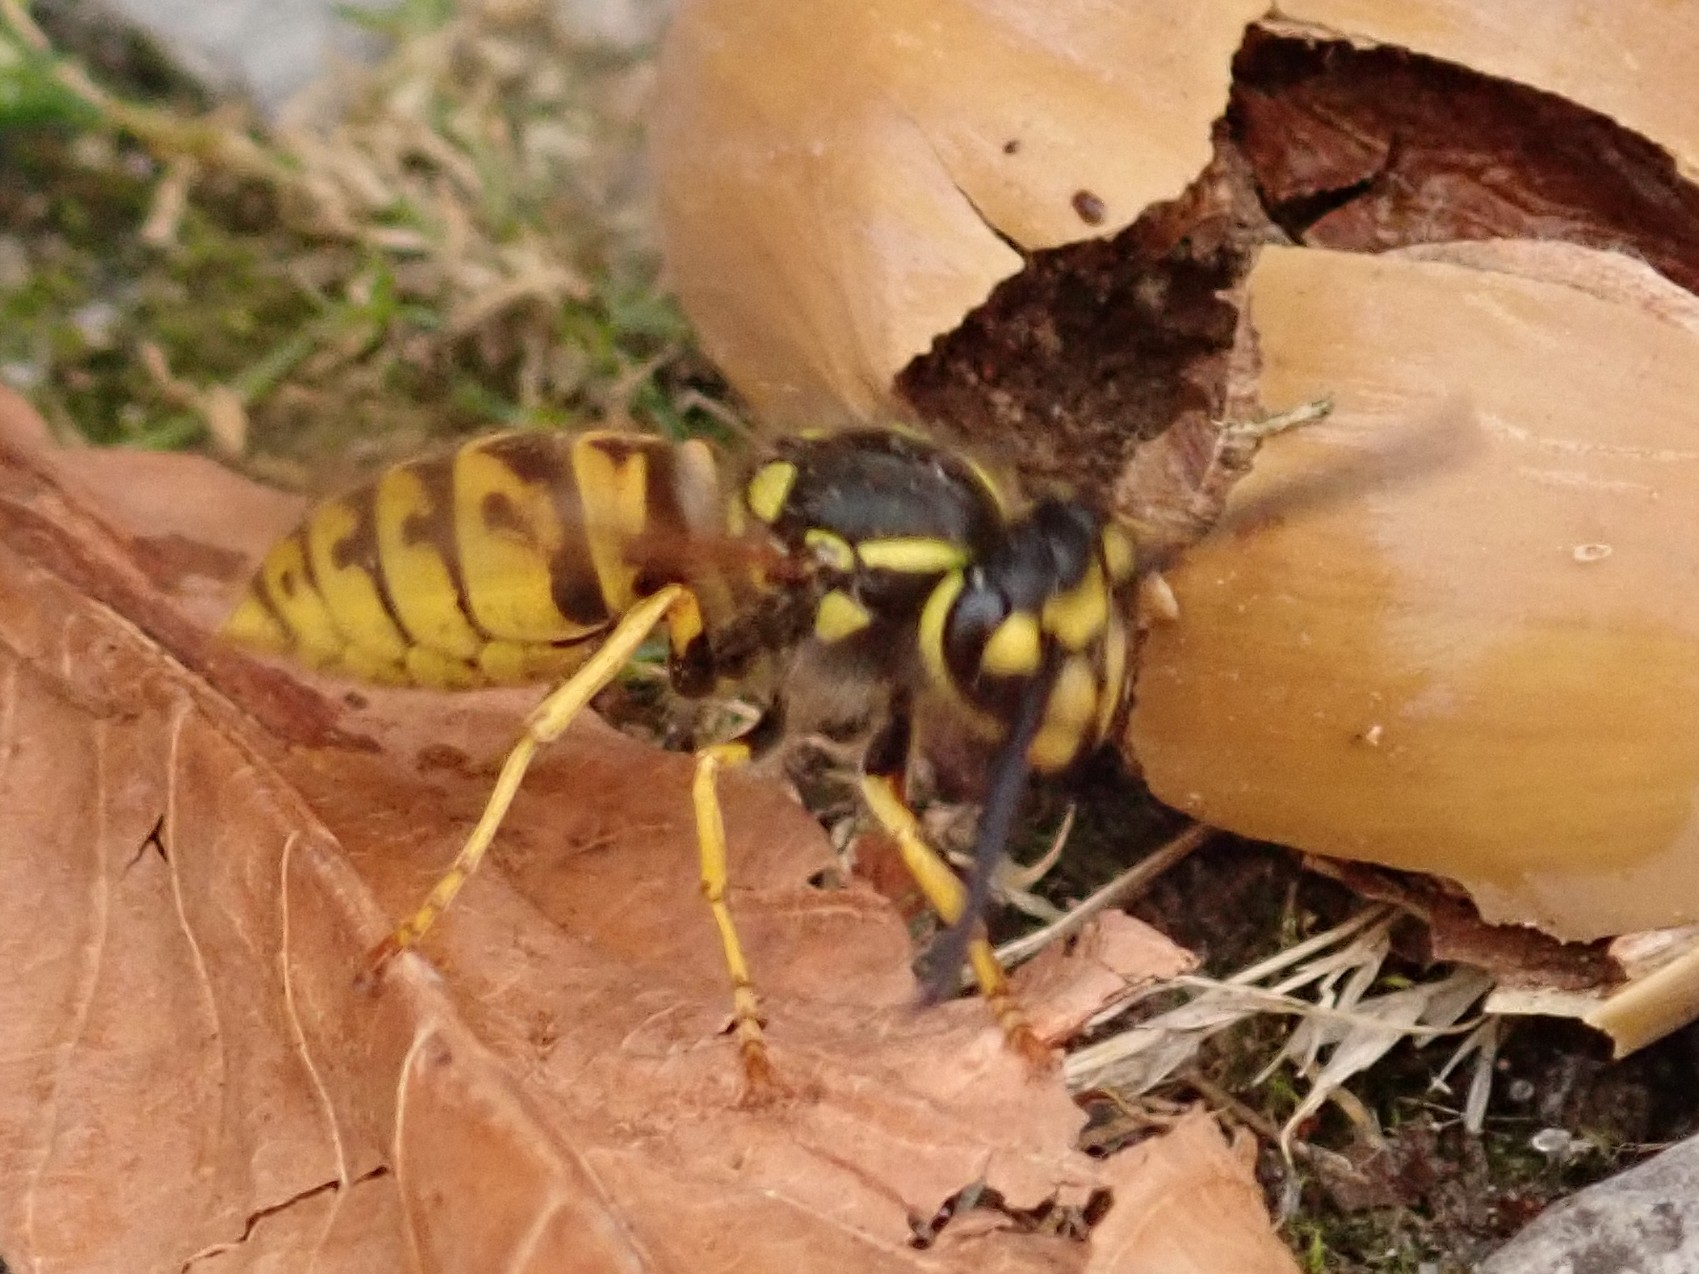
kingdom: Animalia
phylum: Arthropoda
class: Insecta
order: Hymenoptera
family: Vespidae
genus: Vespula
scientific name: Vespula germanica
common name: German wasp
